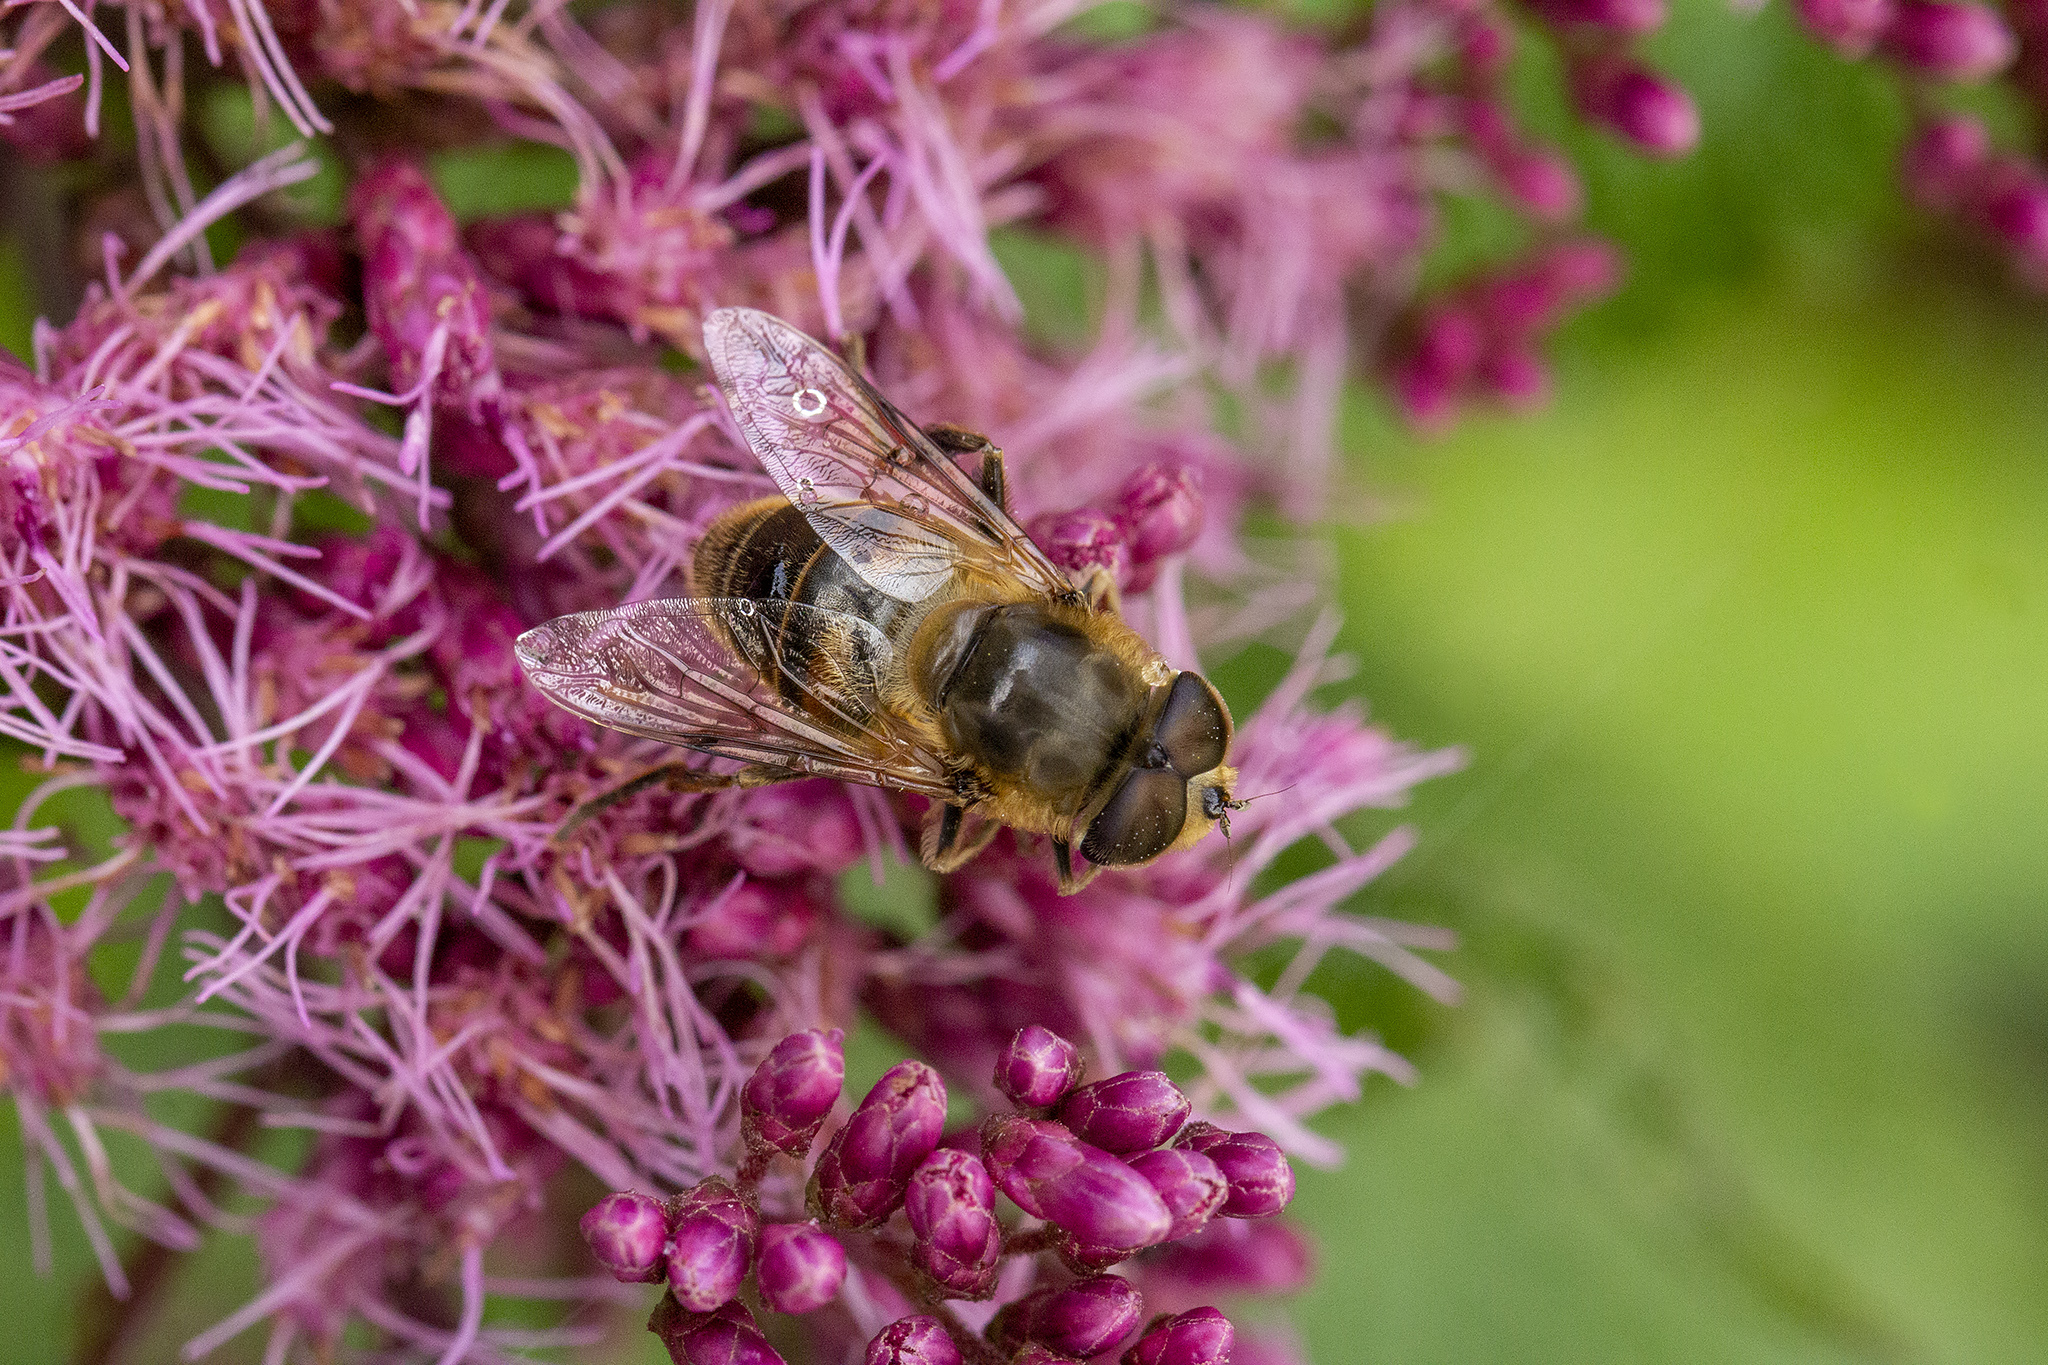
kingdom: Animalia
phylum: Arthropoda
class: Insecta
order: Diptera
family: Syrphidae
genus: Eristalis
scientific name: Eristalis tenax
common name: Drone fly
